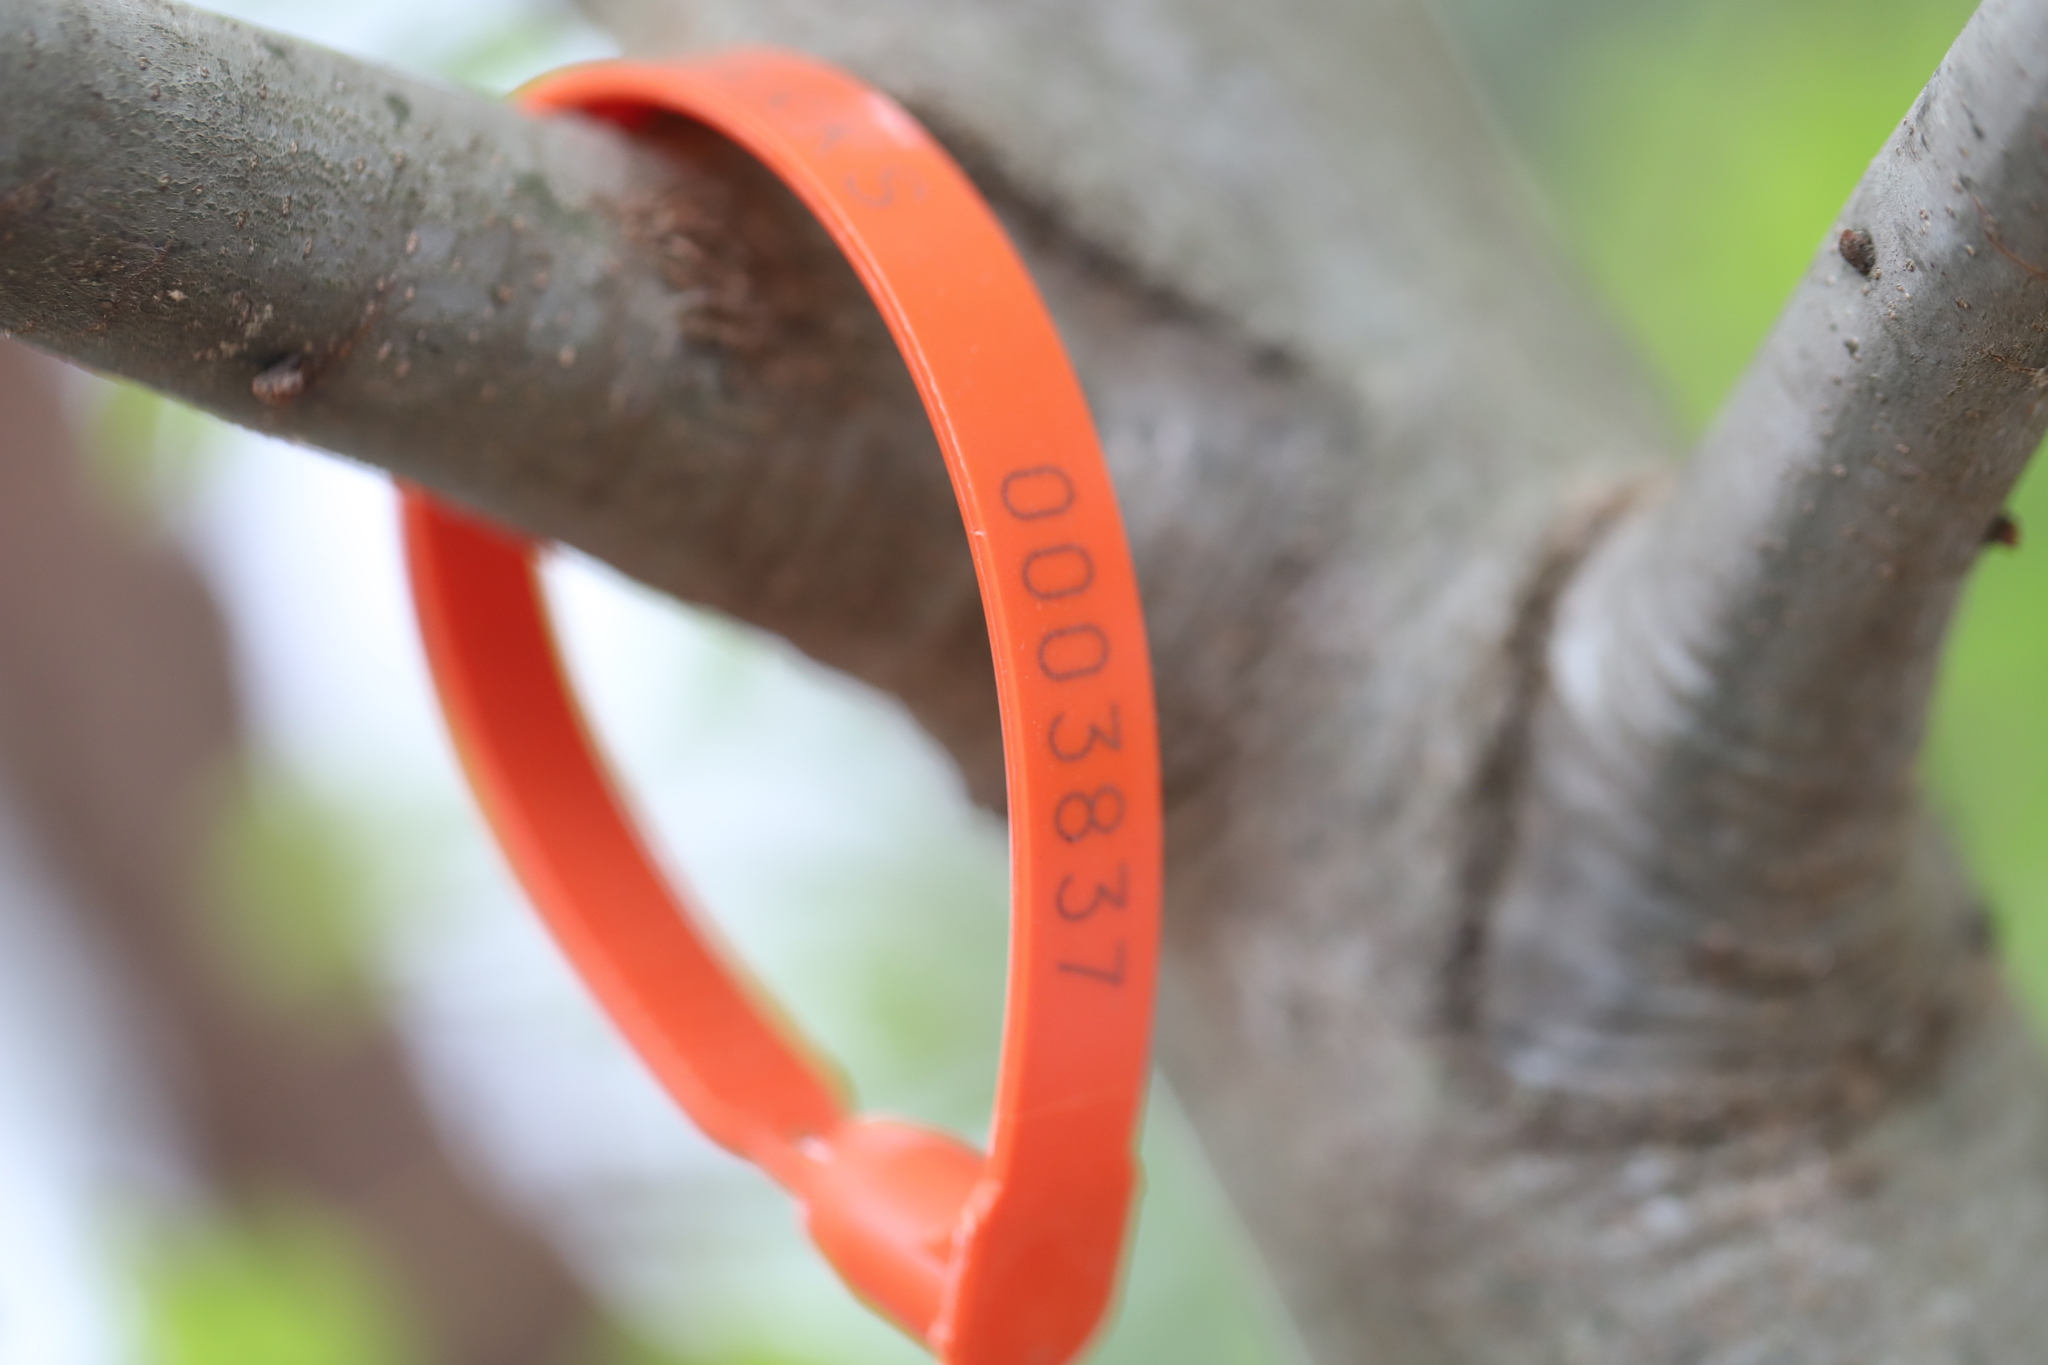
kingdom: Animalia
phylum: Arthropoda
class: Insecta
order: Hymenoptera
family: Cynipidae
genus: Amphibolips
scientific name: Amphibolips
